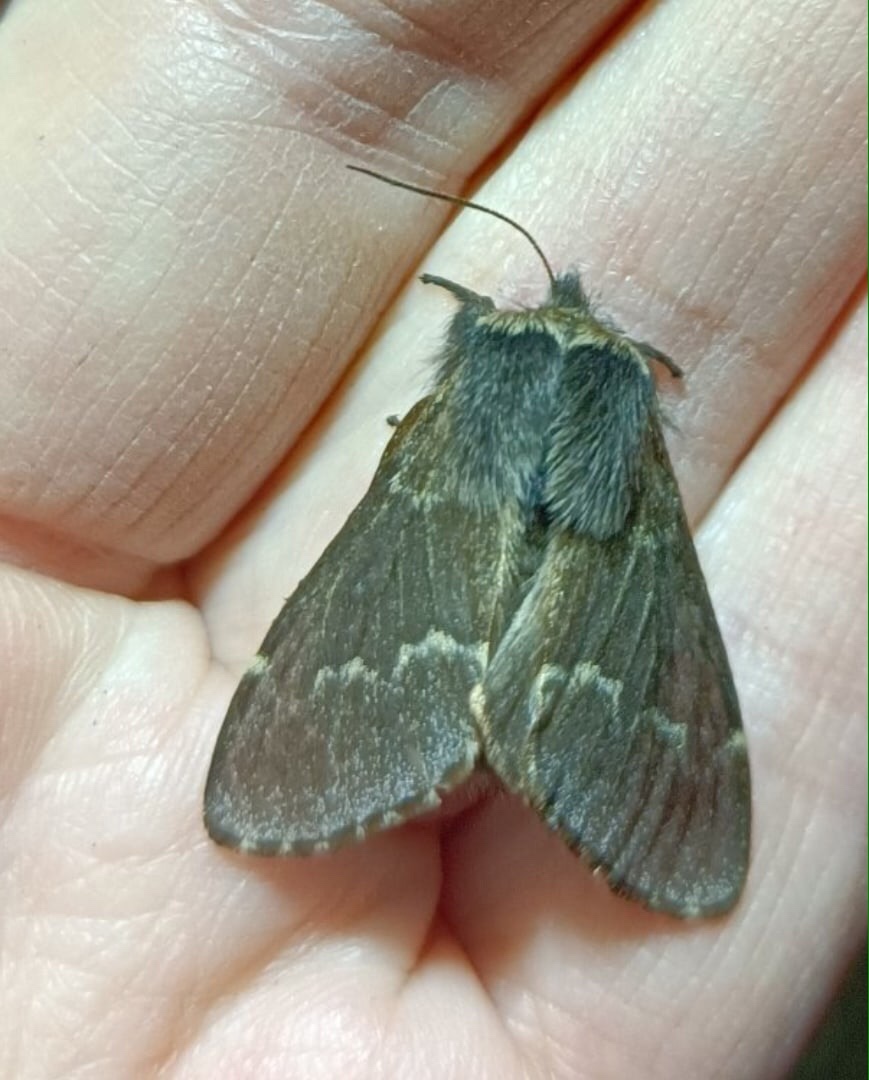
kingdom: Animalia
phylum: Arthropoda
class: Insecta
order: Lepidoptera
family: Lasiocampidae
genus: Poecilocampa
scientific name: Poecilocampa populi
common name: December moth
